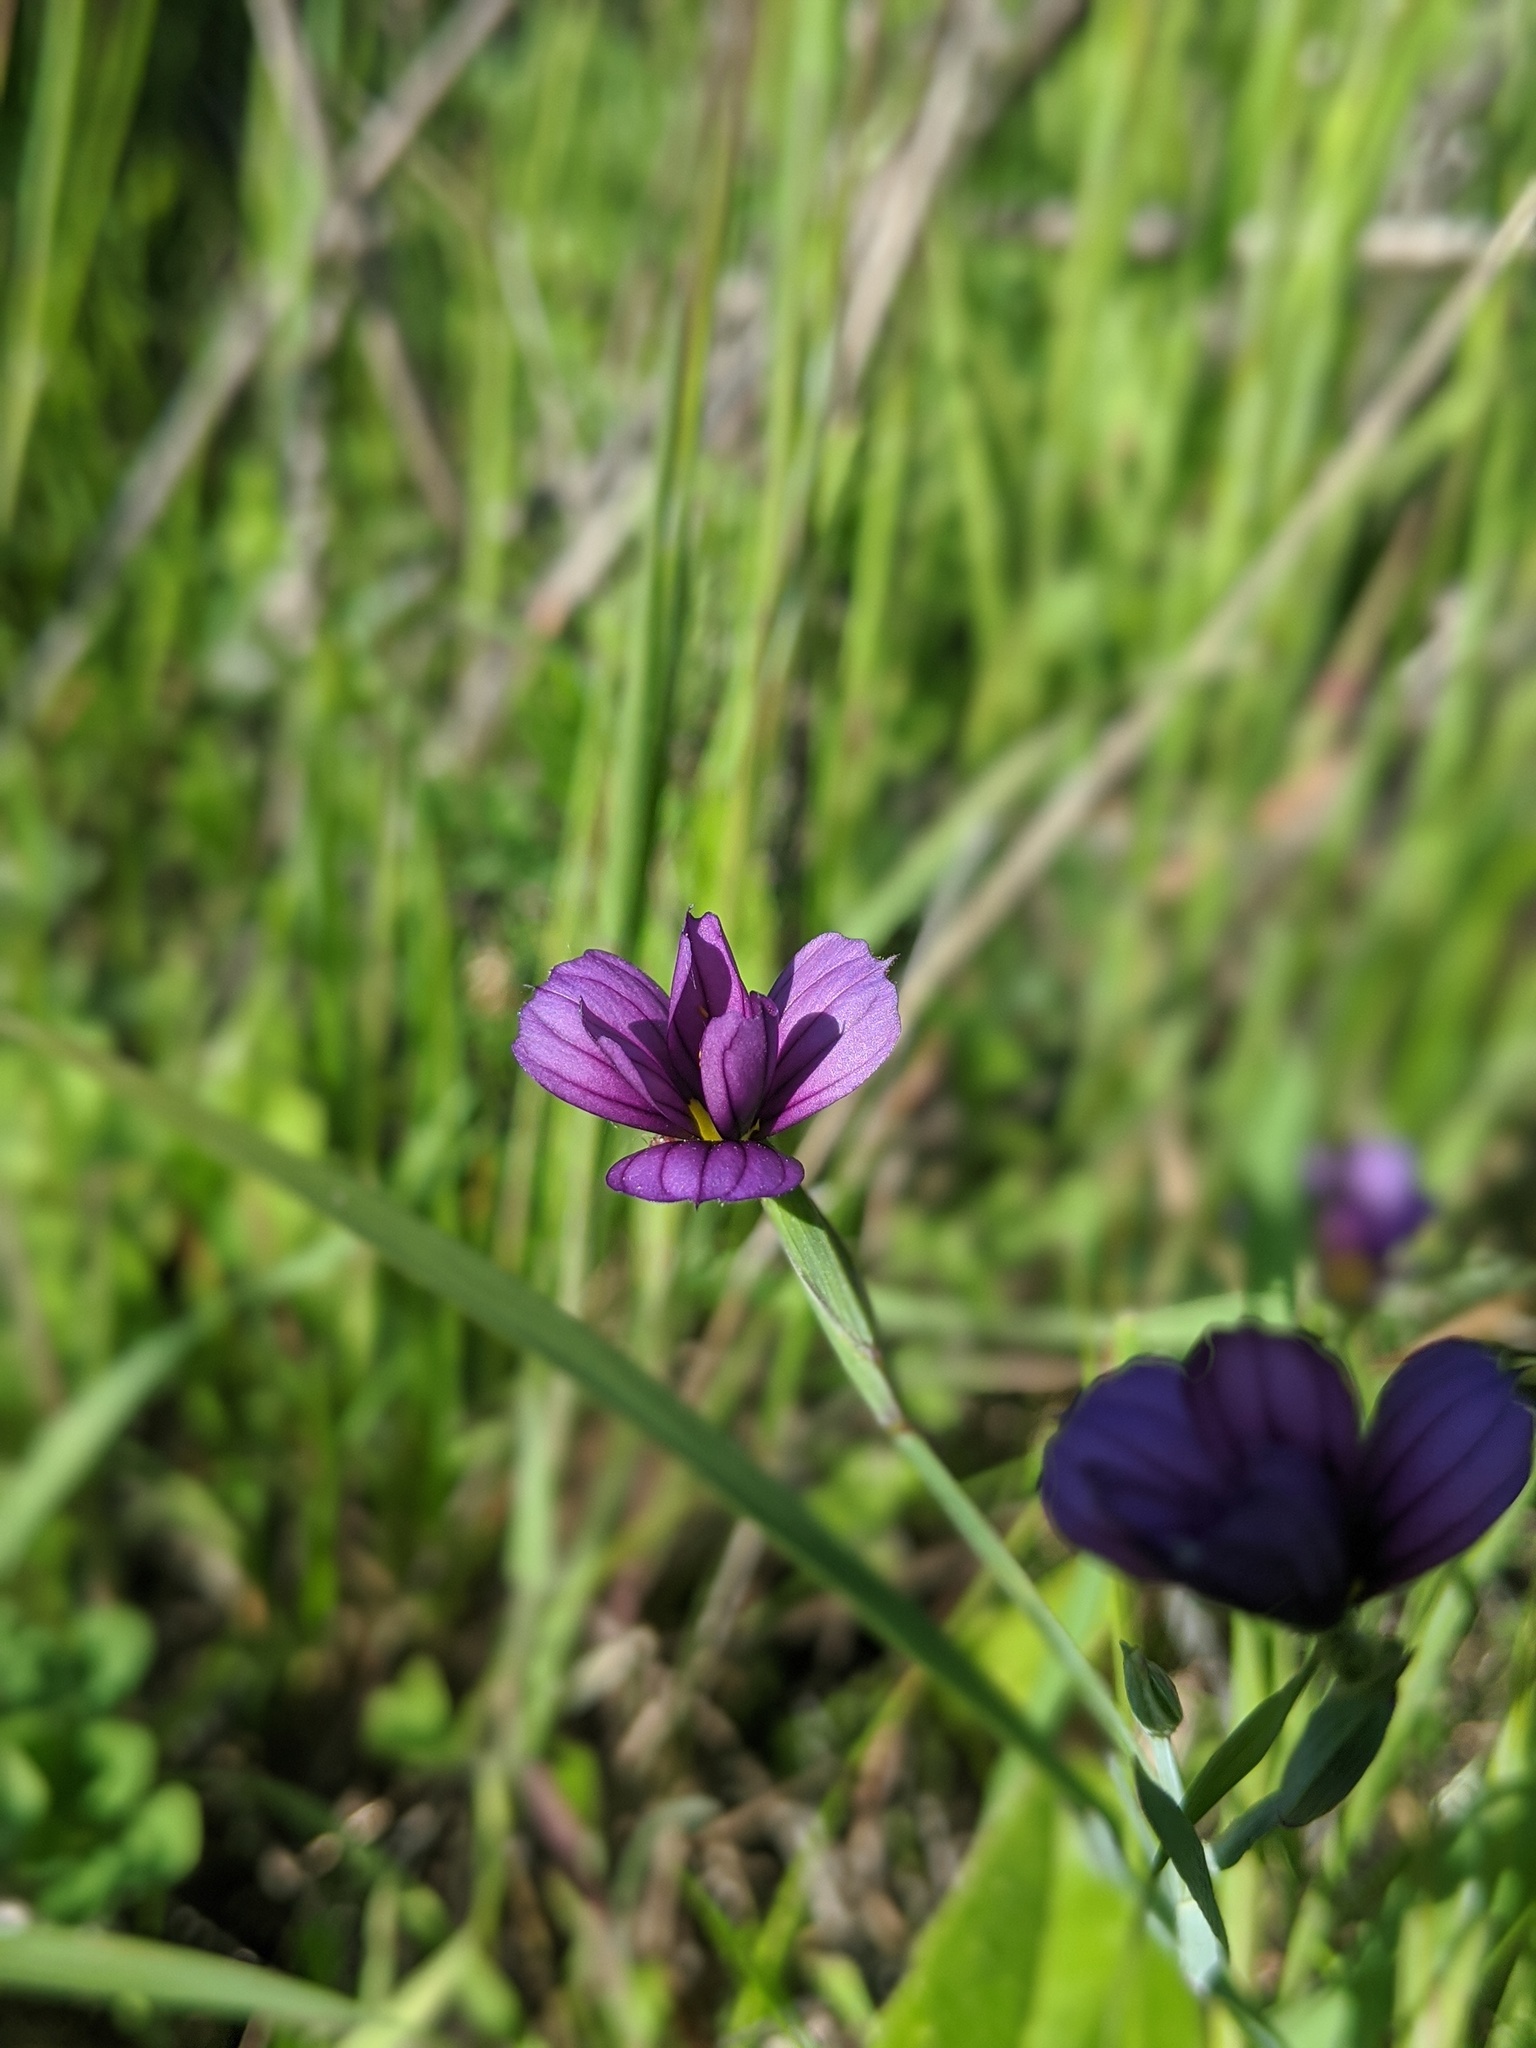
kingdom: Plantae
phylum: Tracheophyta
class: Liliopsida
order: Asparagales
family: Iridaceae
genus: Sisyrinchium
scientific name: Sisyrinchium bellum
